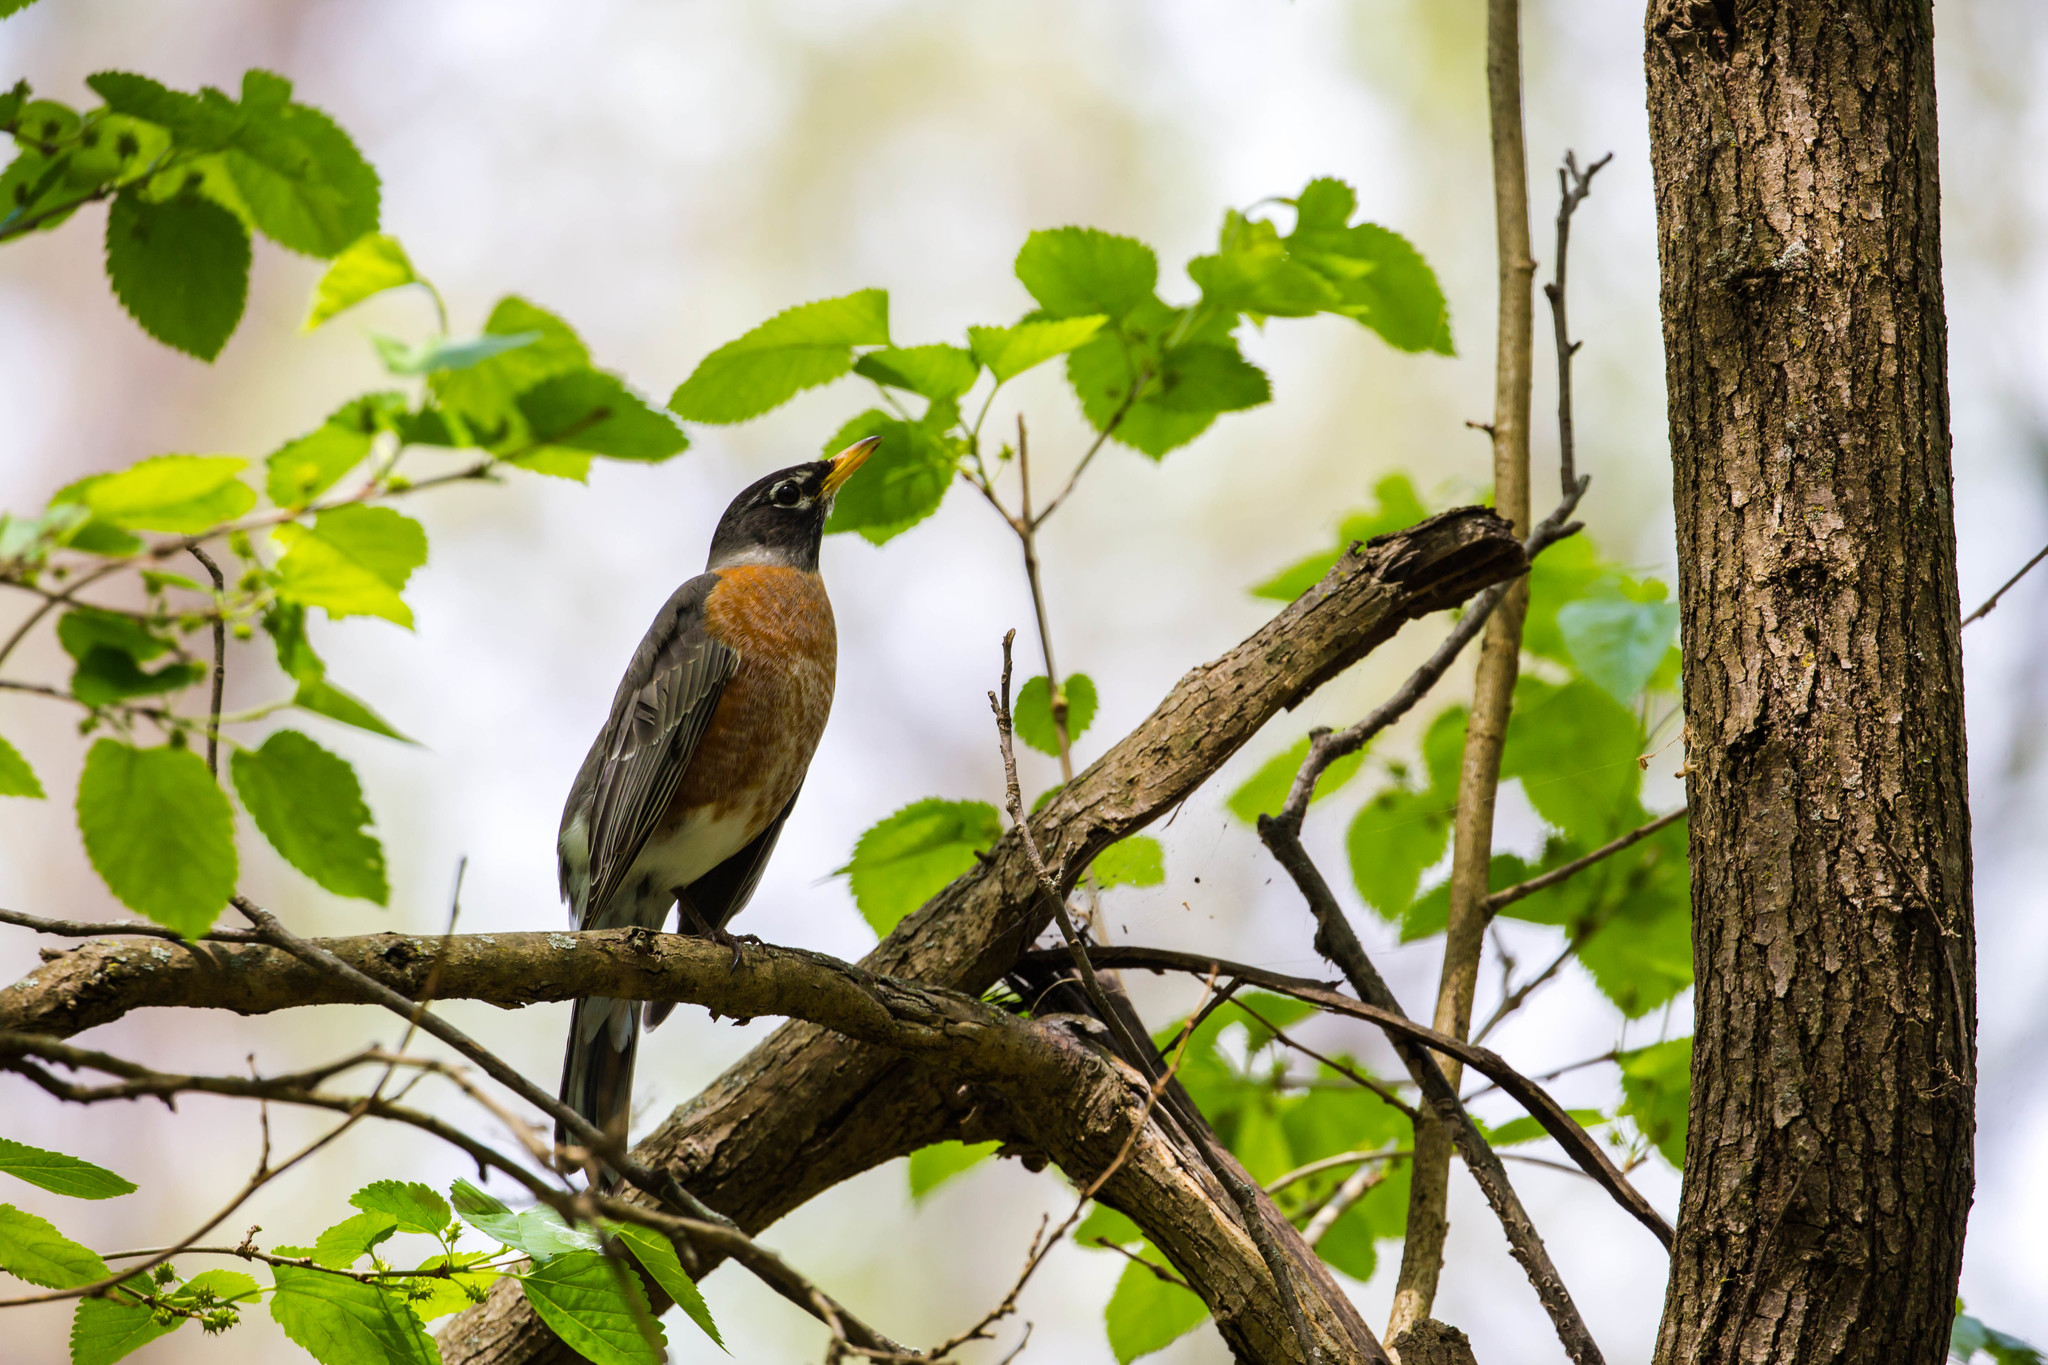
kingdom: Animalia
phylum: Chordata
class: Aves
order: Passeriformes
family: Turdidae
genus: Turdus
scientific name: Turdus migratorius
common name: American robin
